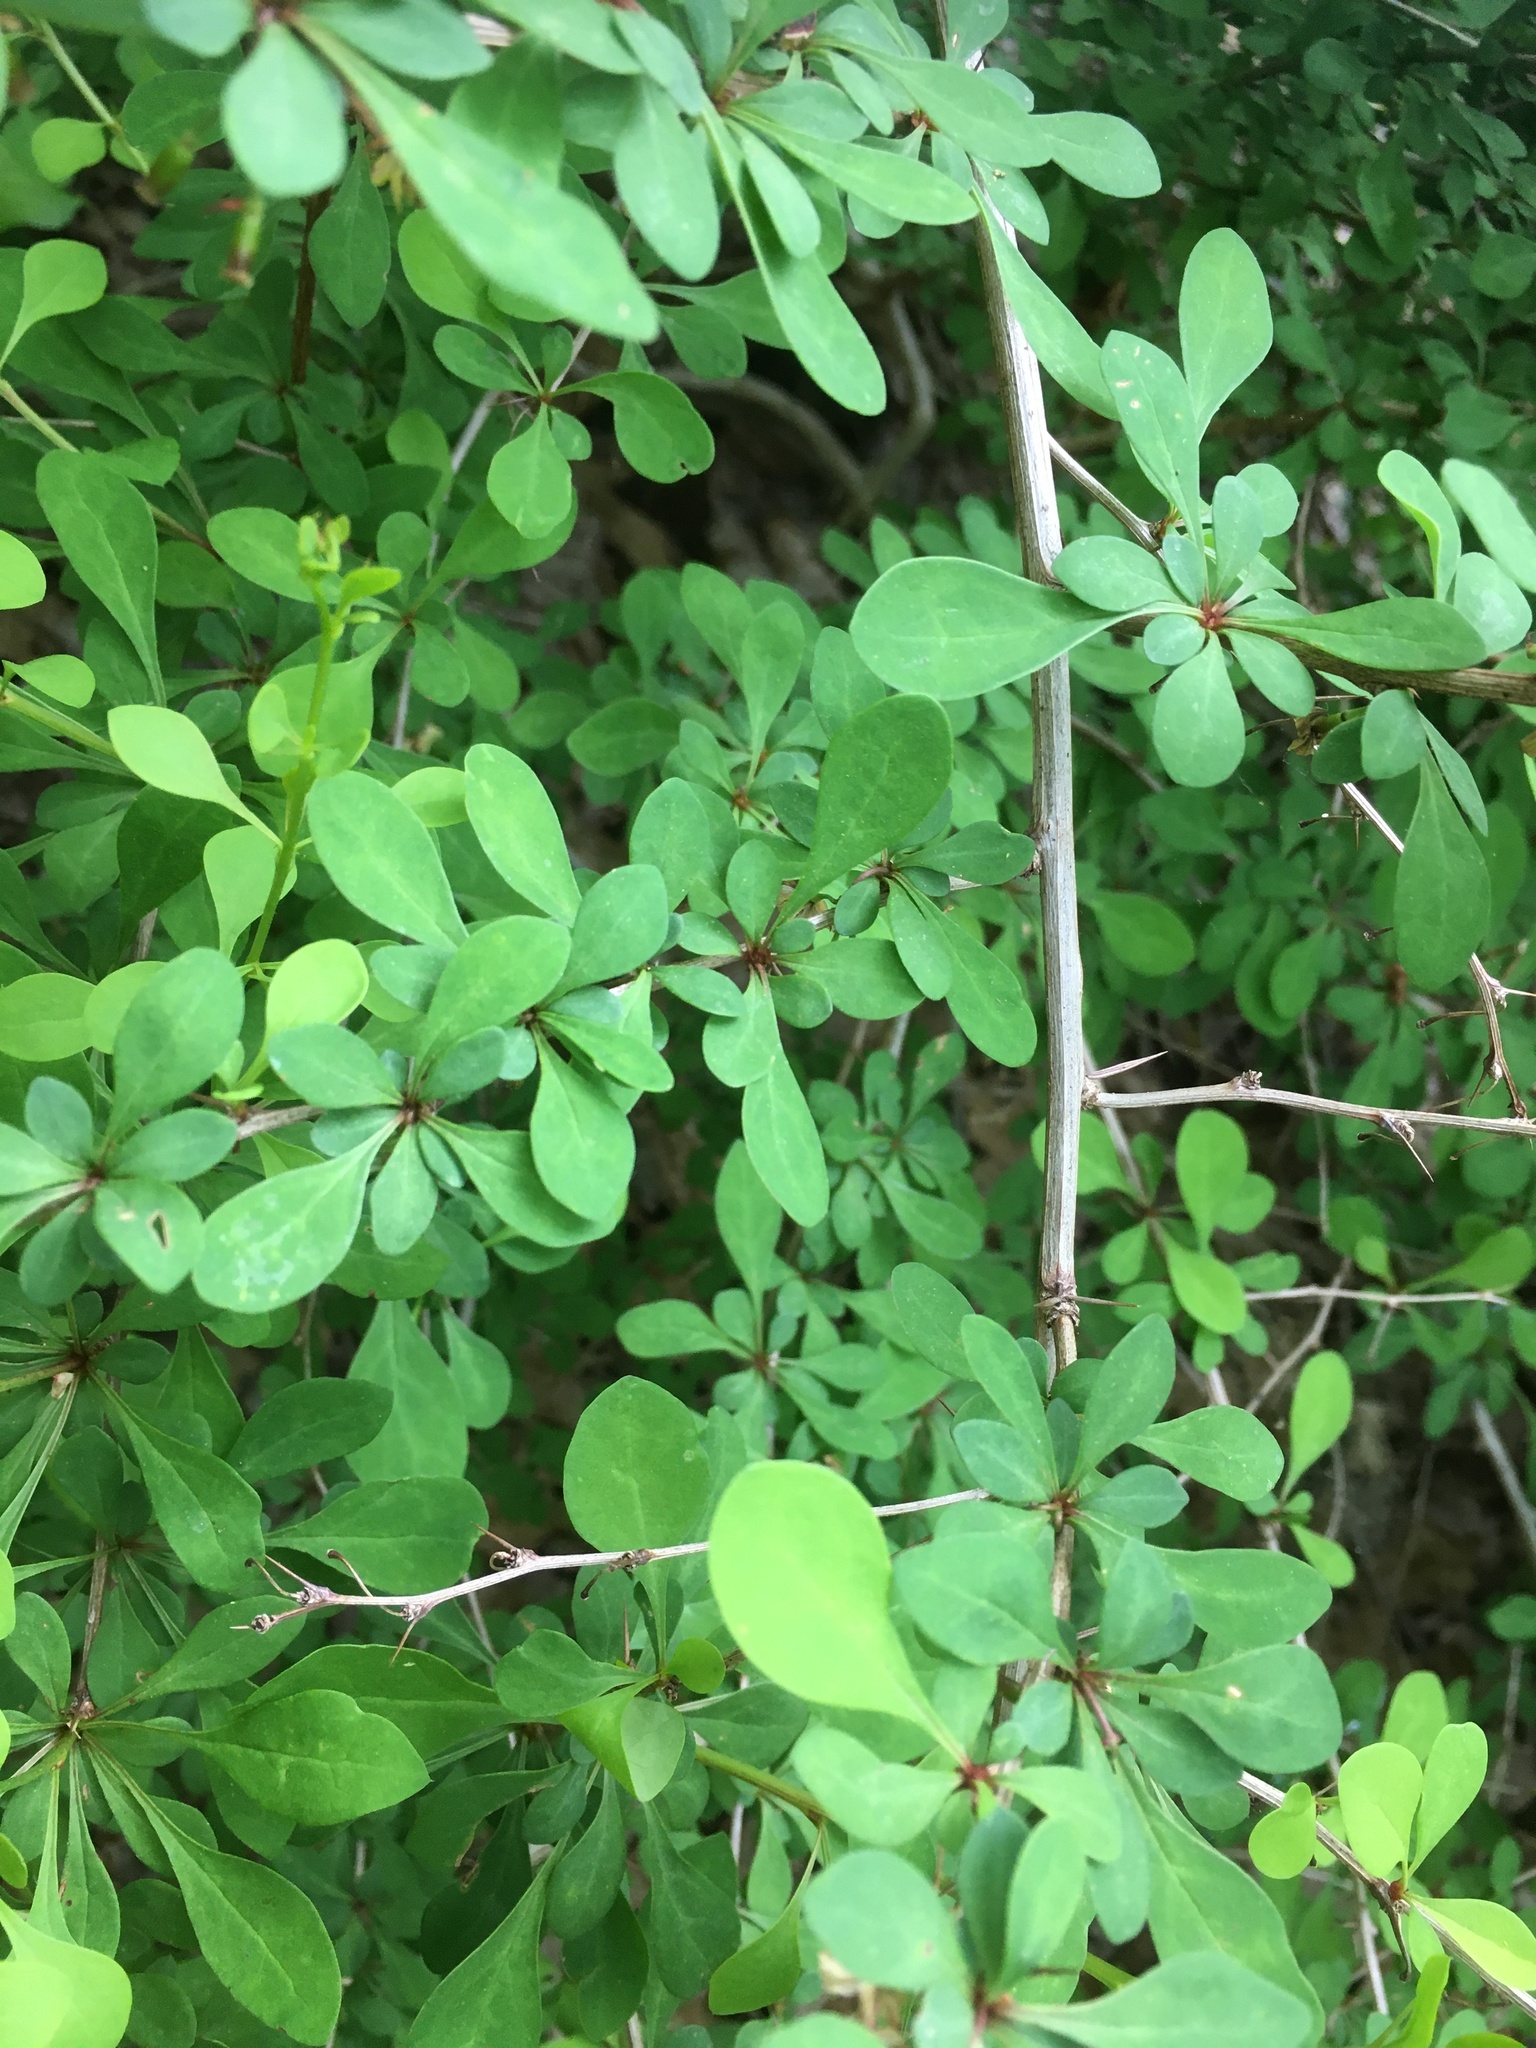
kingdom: Plantae
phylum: Tracheophyta
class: Magnoliopsida
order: Ranunculales
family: Berberidaceae
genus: Berberis
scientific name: Berberis thunbergii
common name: Japanese barberry
